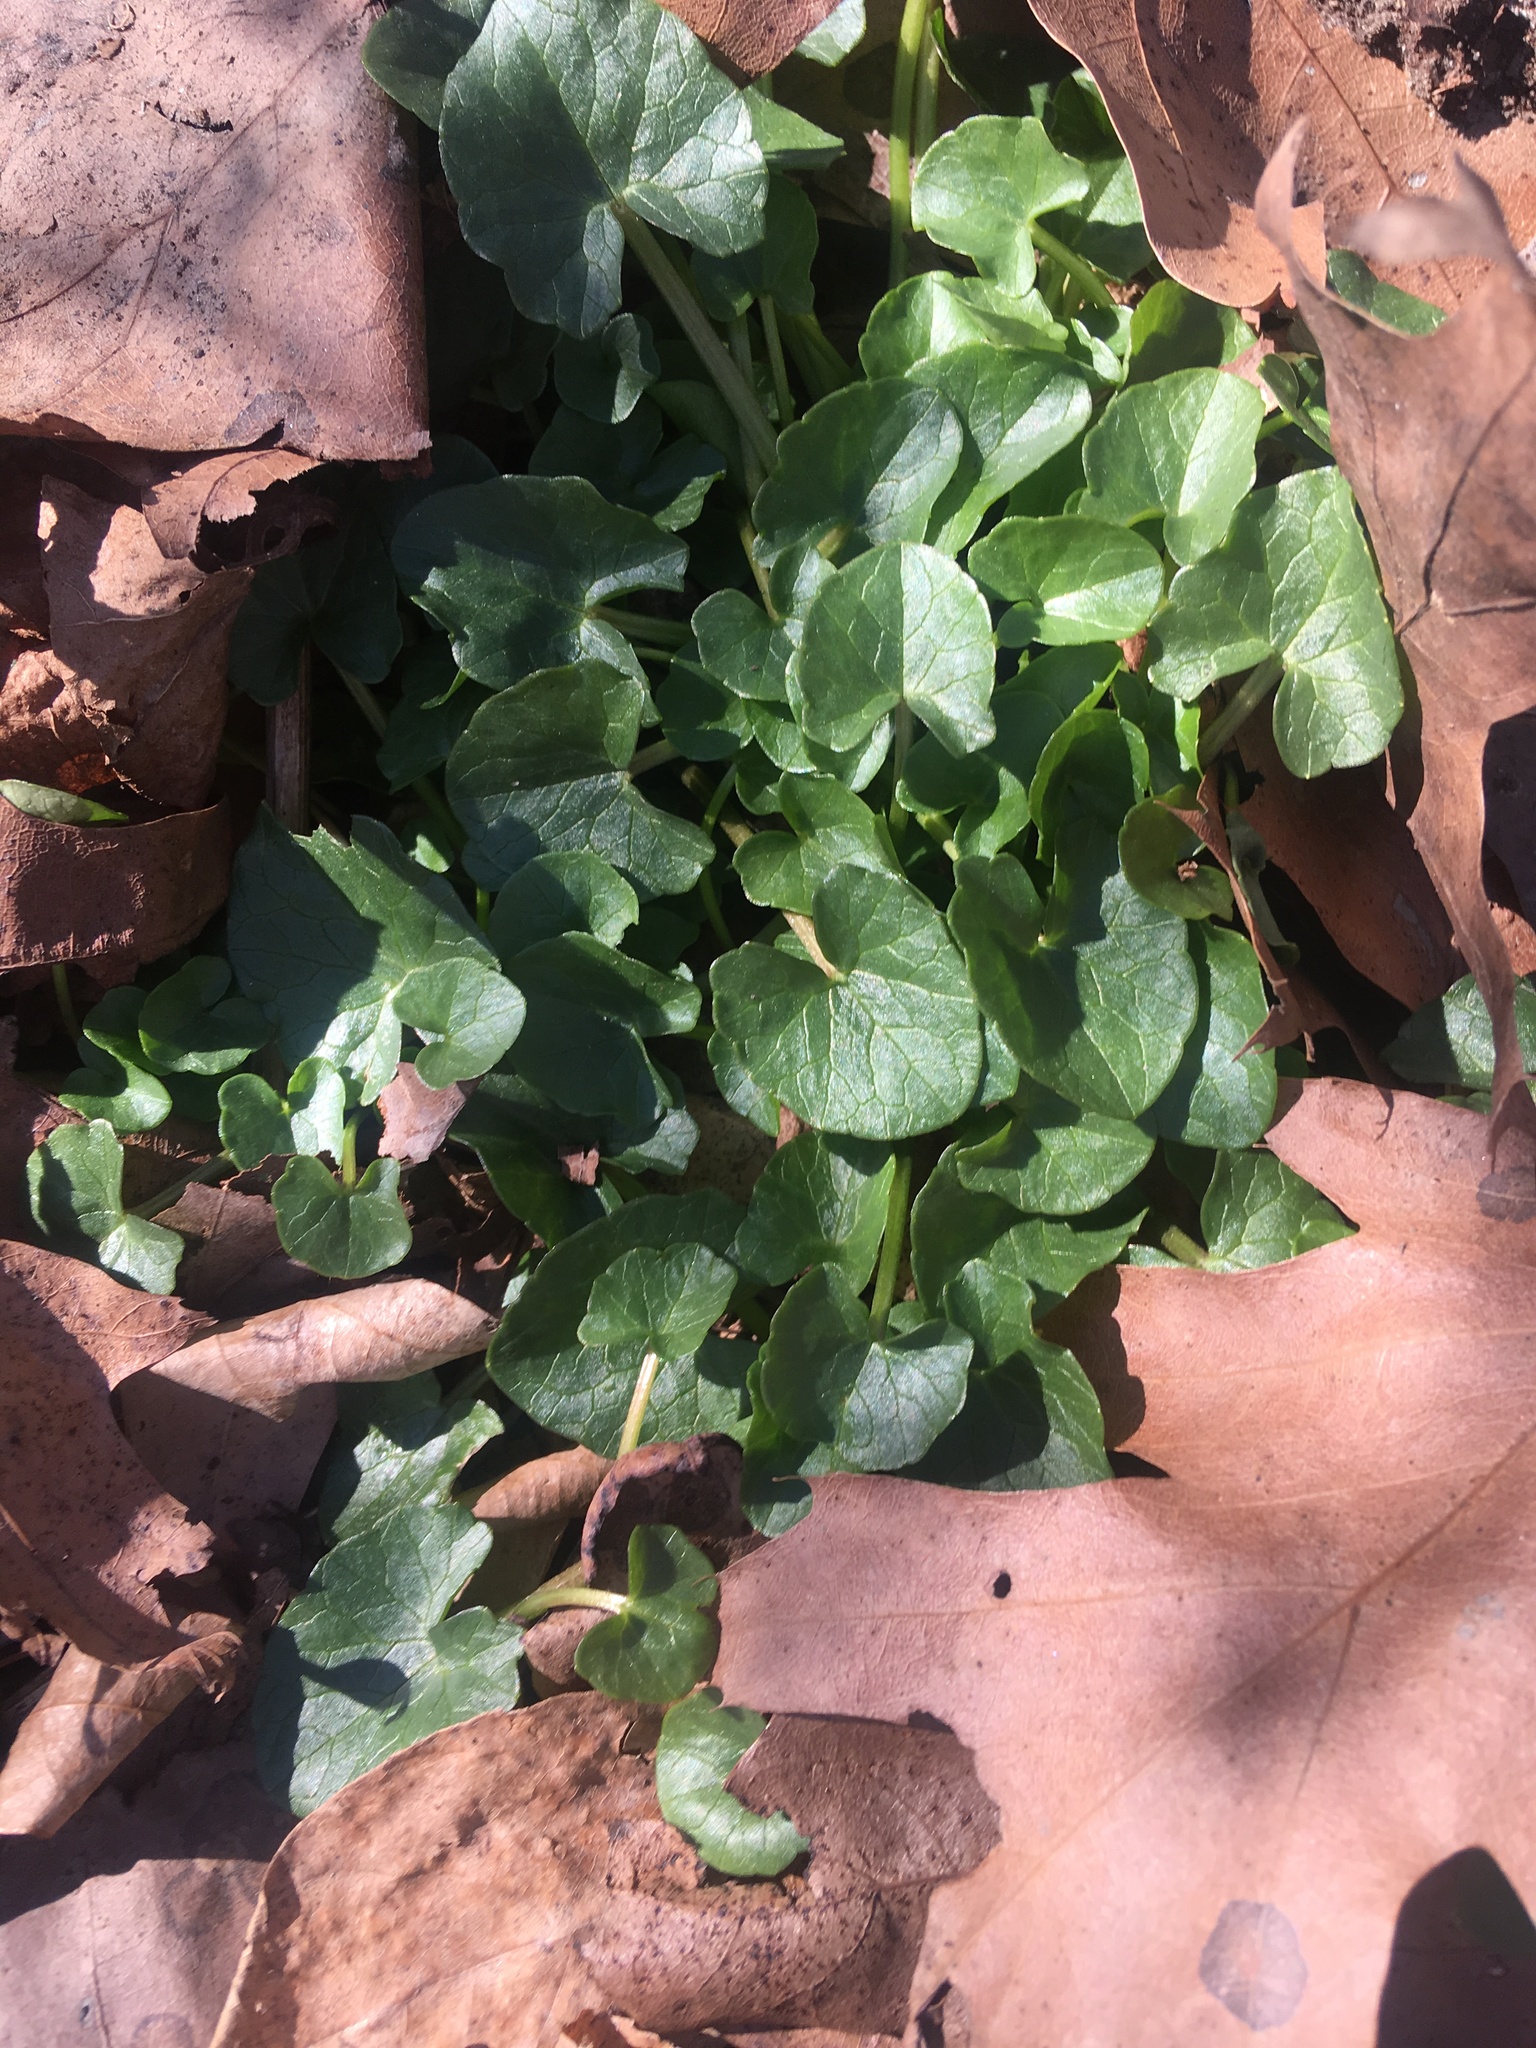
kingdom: Plantae
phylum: Tracheophyta
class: Magnoliopsida
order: Ranunculales
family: Ranunculaceae
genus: Ficaria
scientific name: Ficaria verna
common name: Lesser celandine
